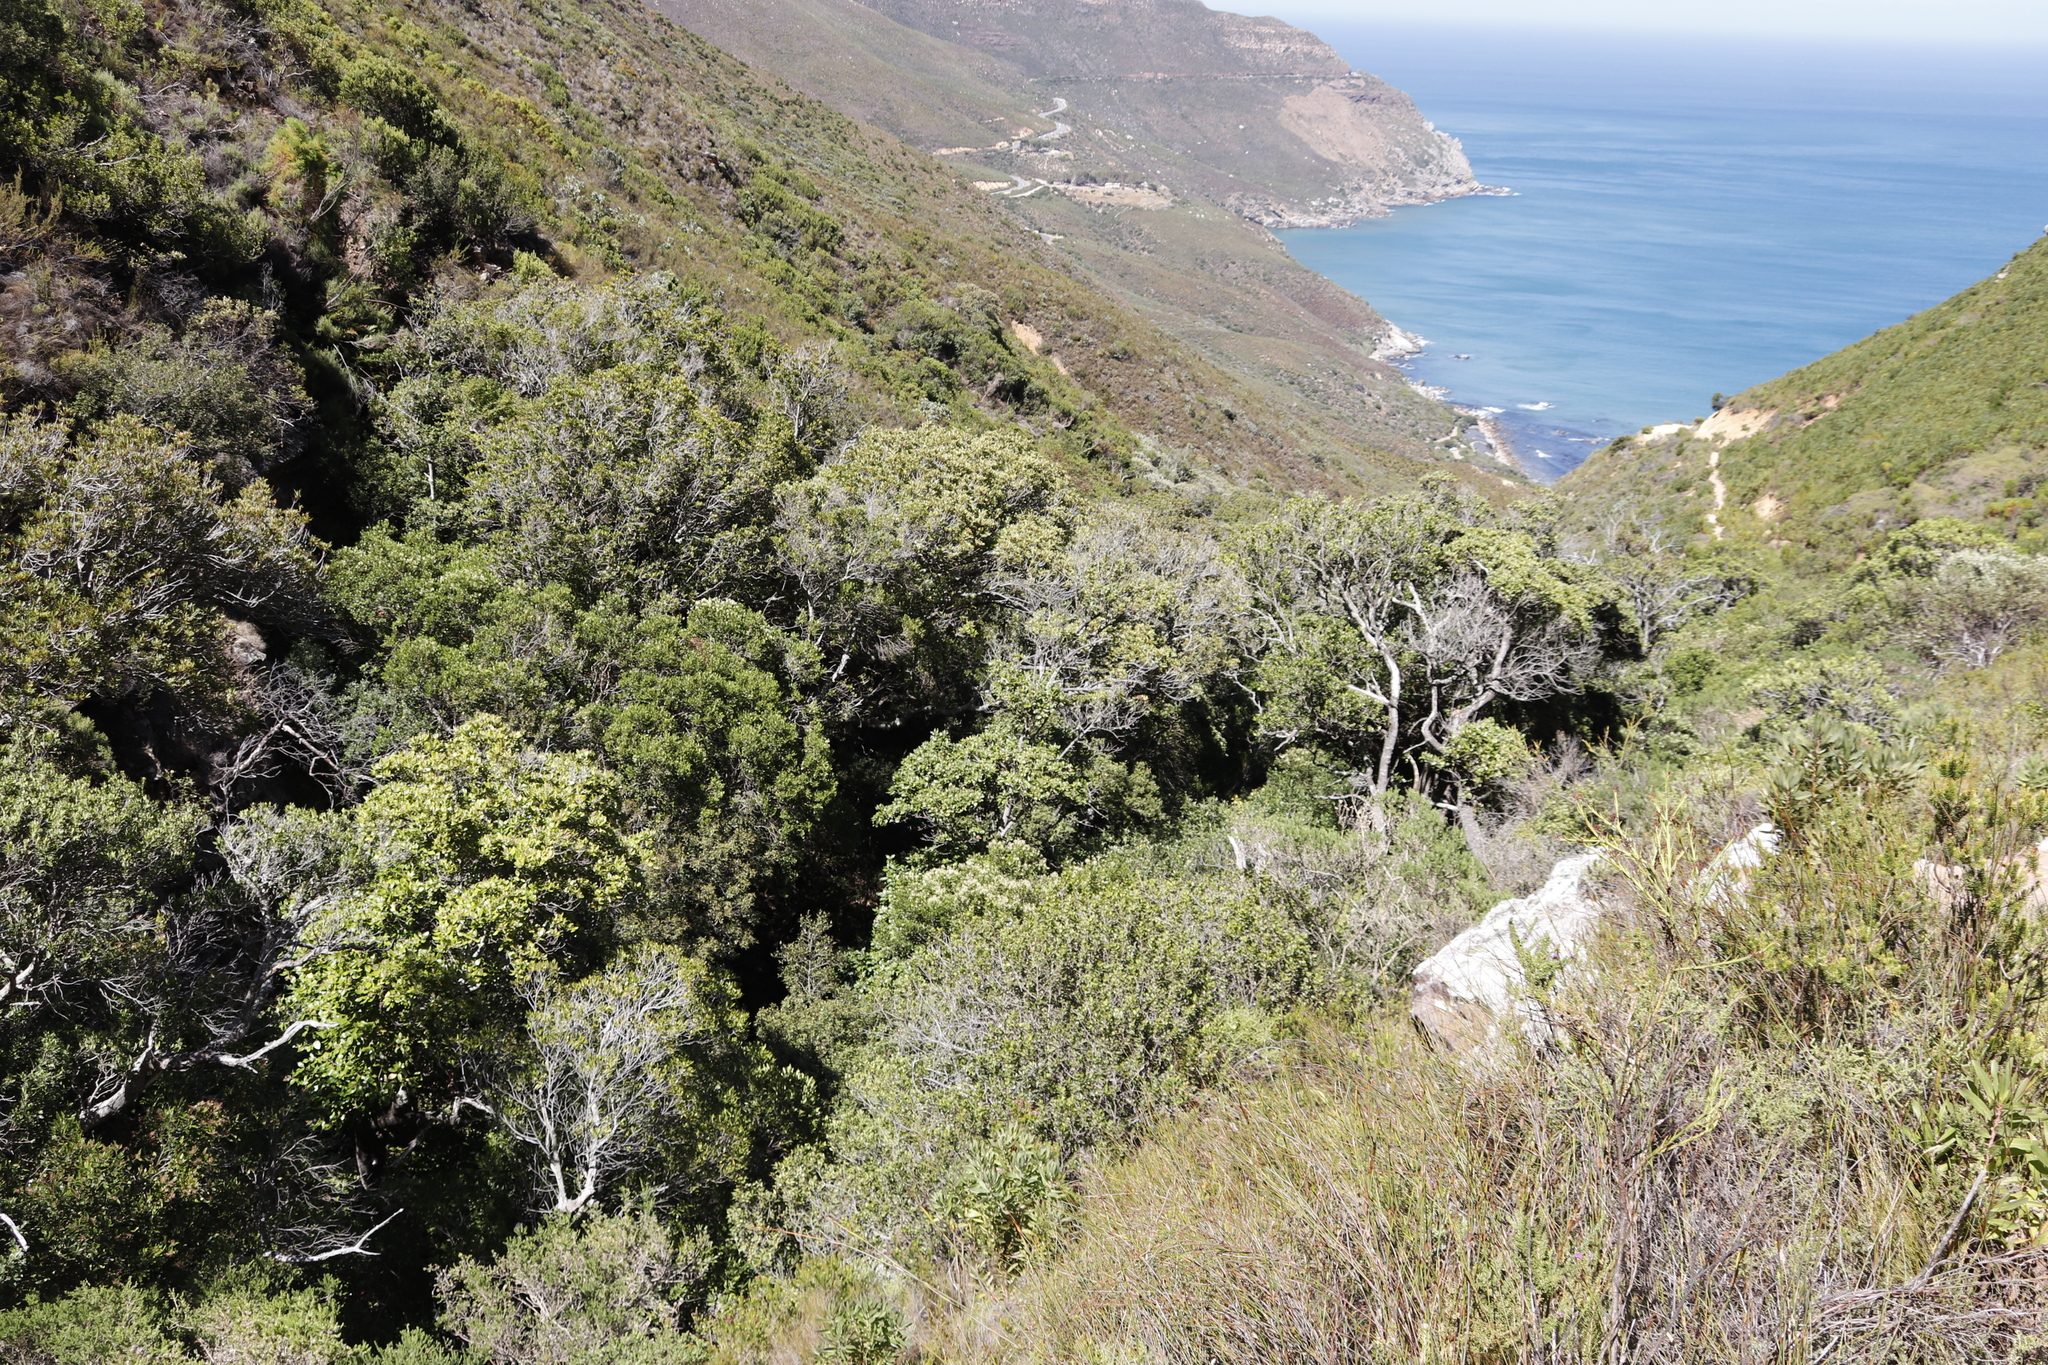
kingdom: Plantae
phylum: Tracheophyta
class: Magnoliopsida
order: Cornales
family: Curtisiaceae
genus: Curtisia
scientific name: Curtisia dentata
